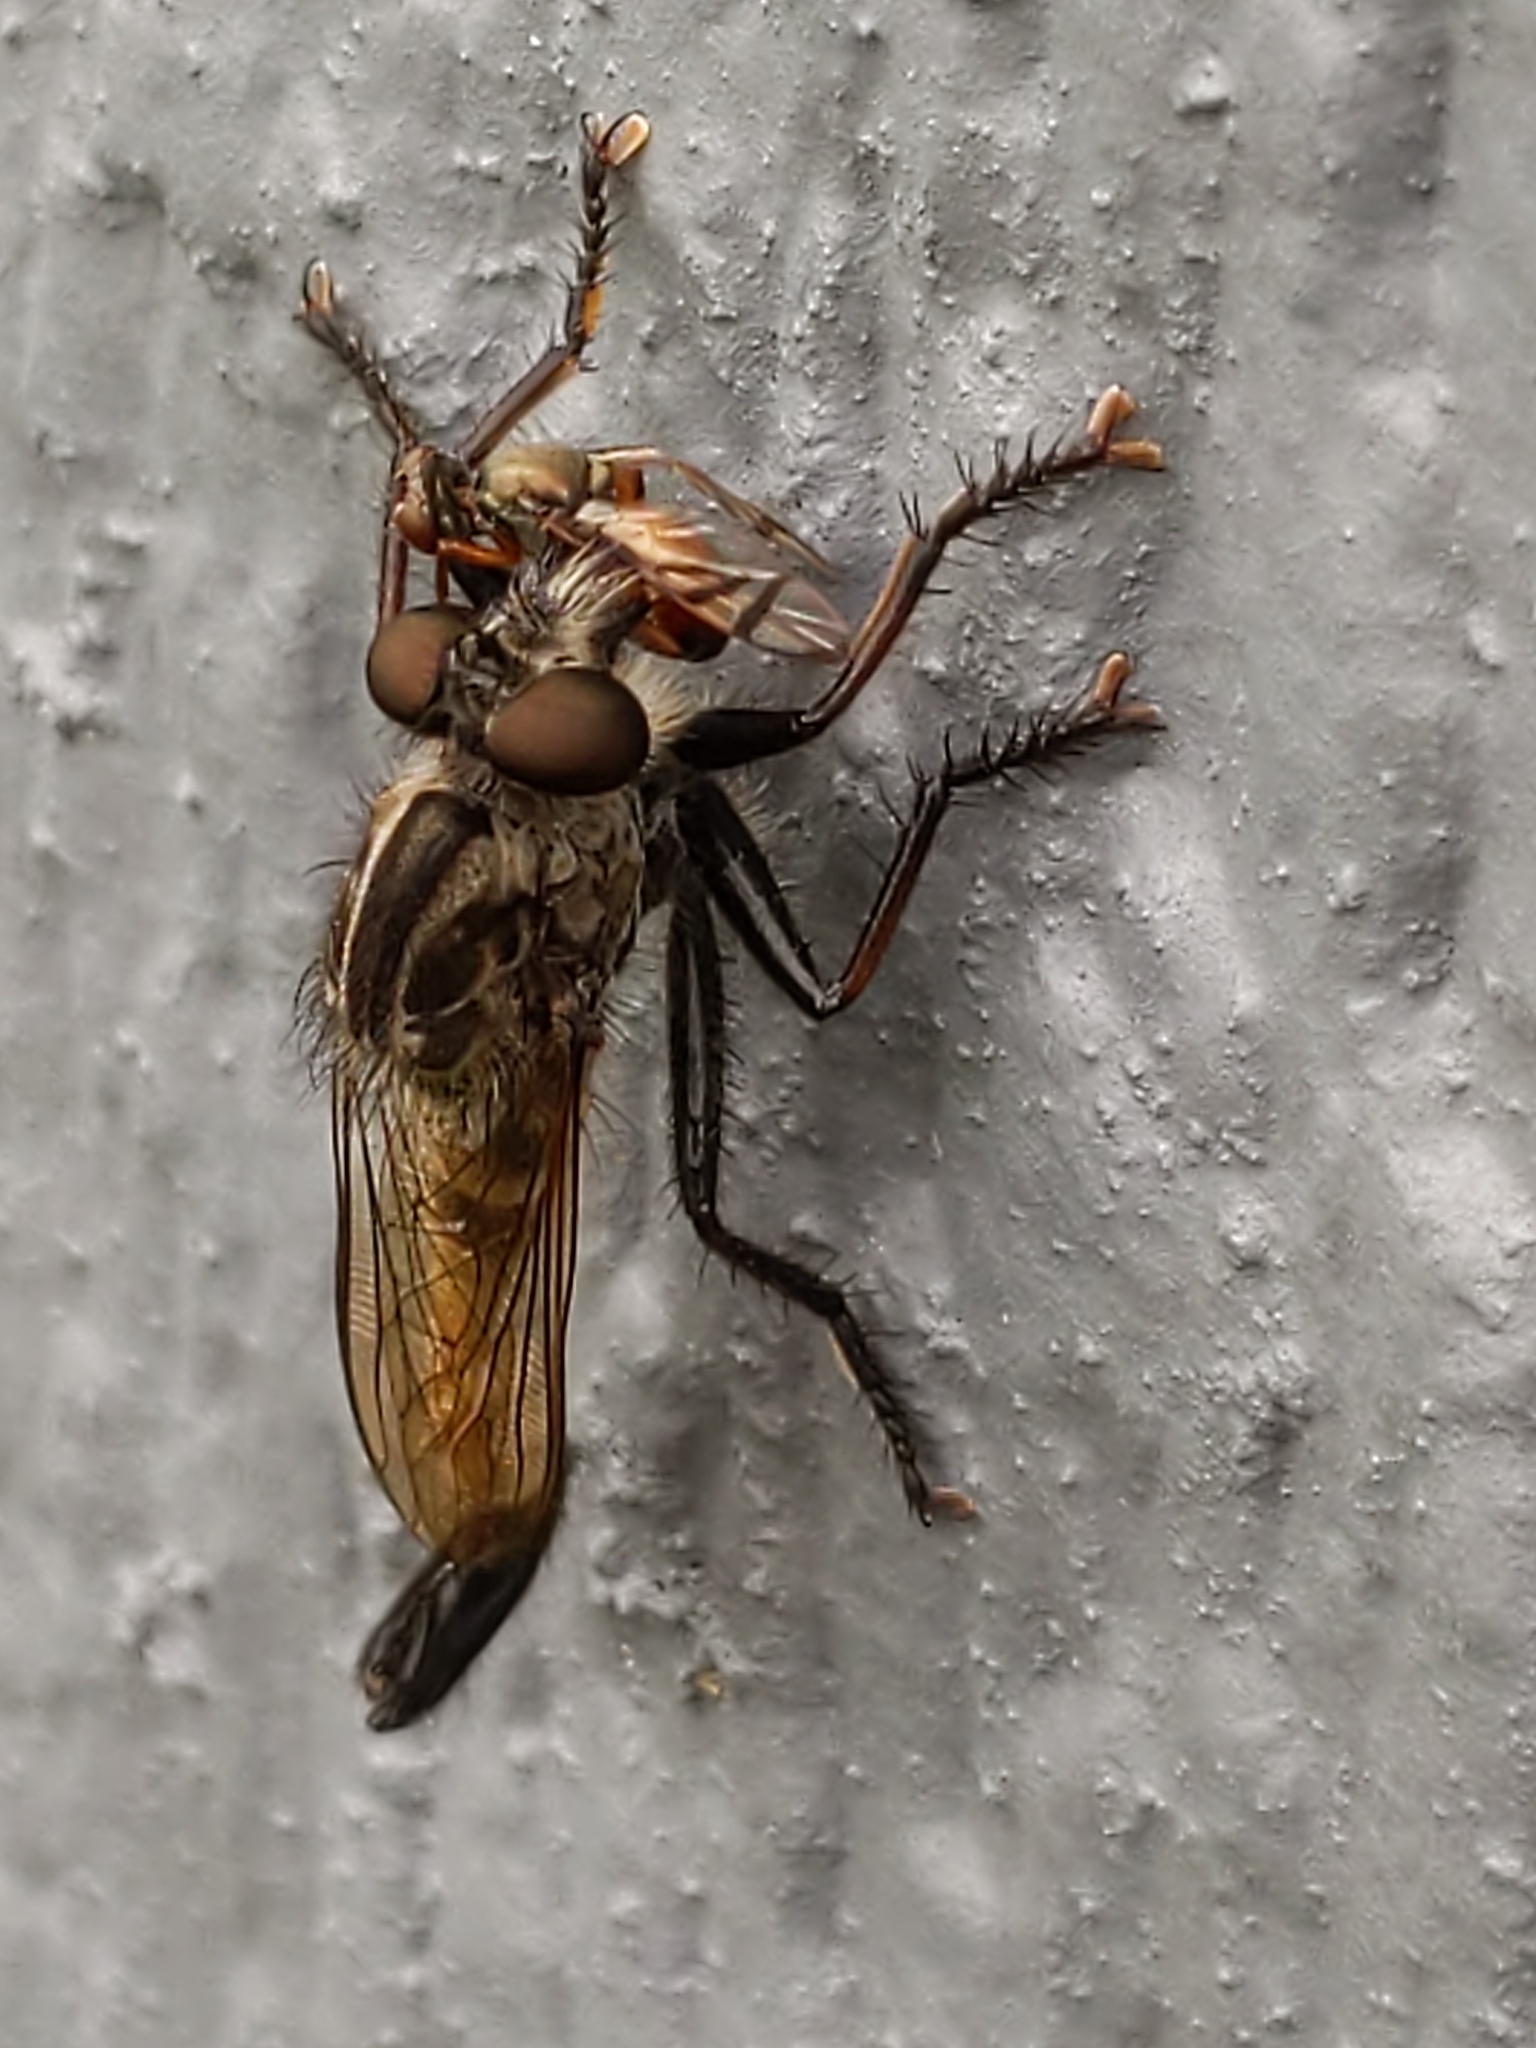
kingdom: Animalia
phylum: Arthropoda
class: Insecta
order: Diptera
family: Asilidae
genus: Efferia
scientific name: Efferia
